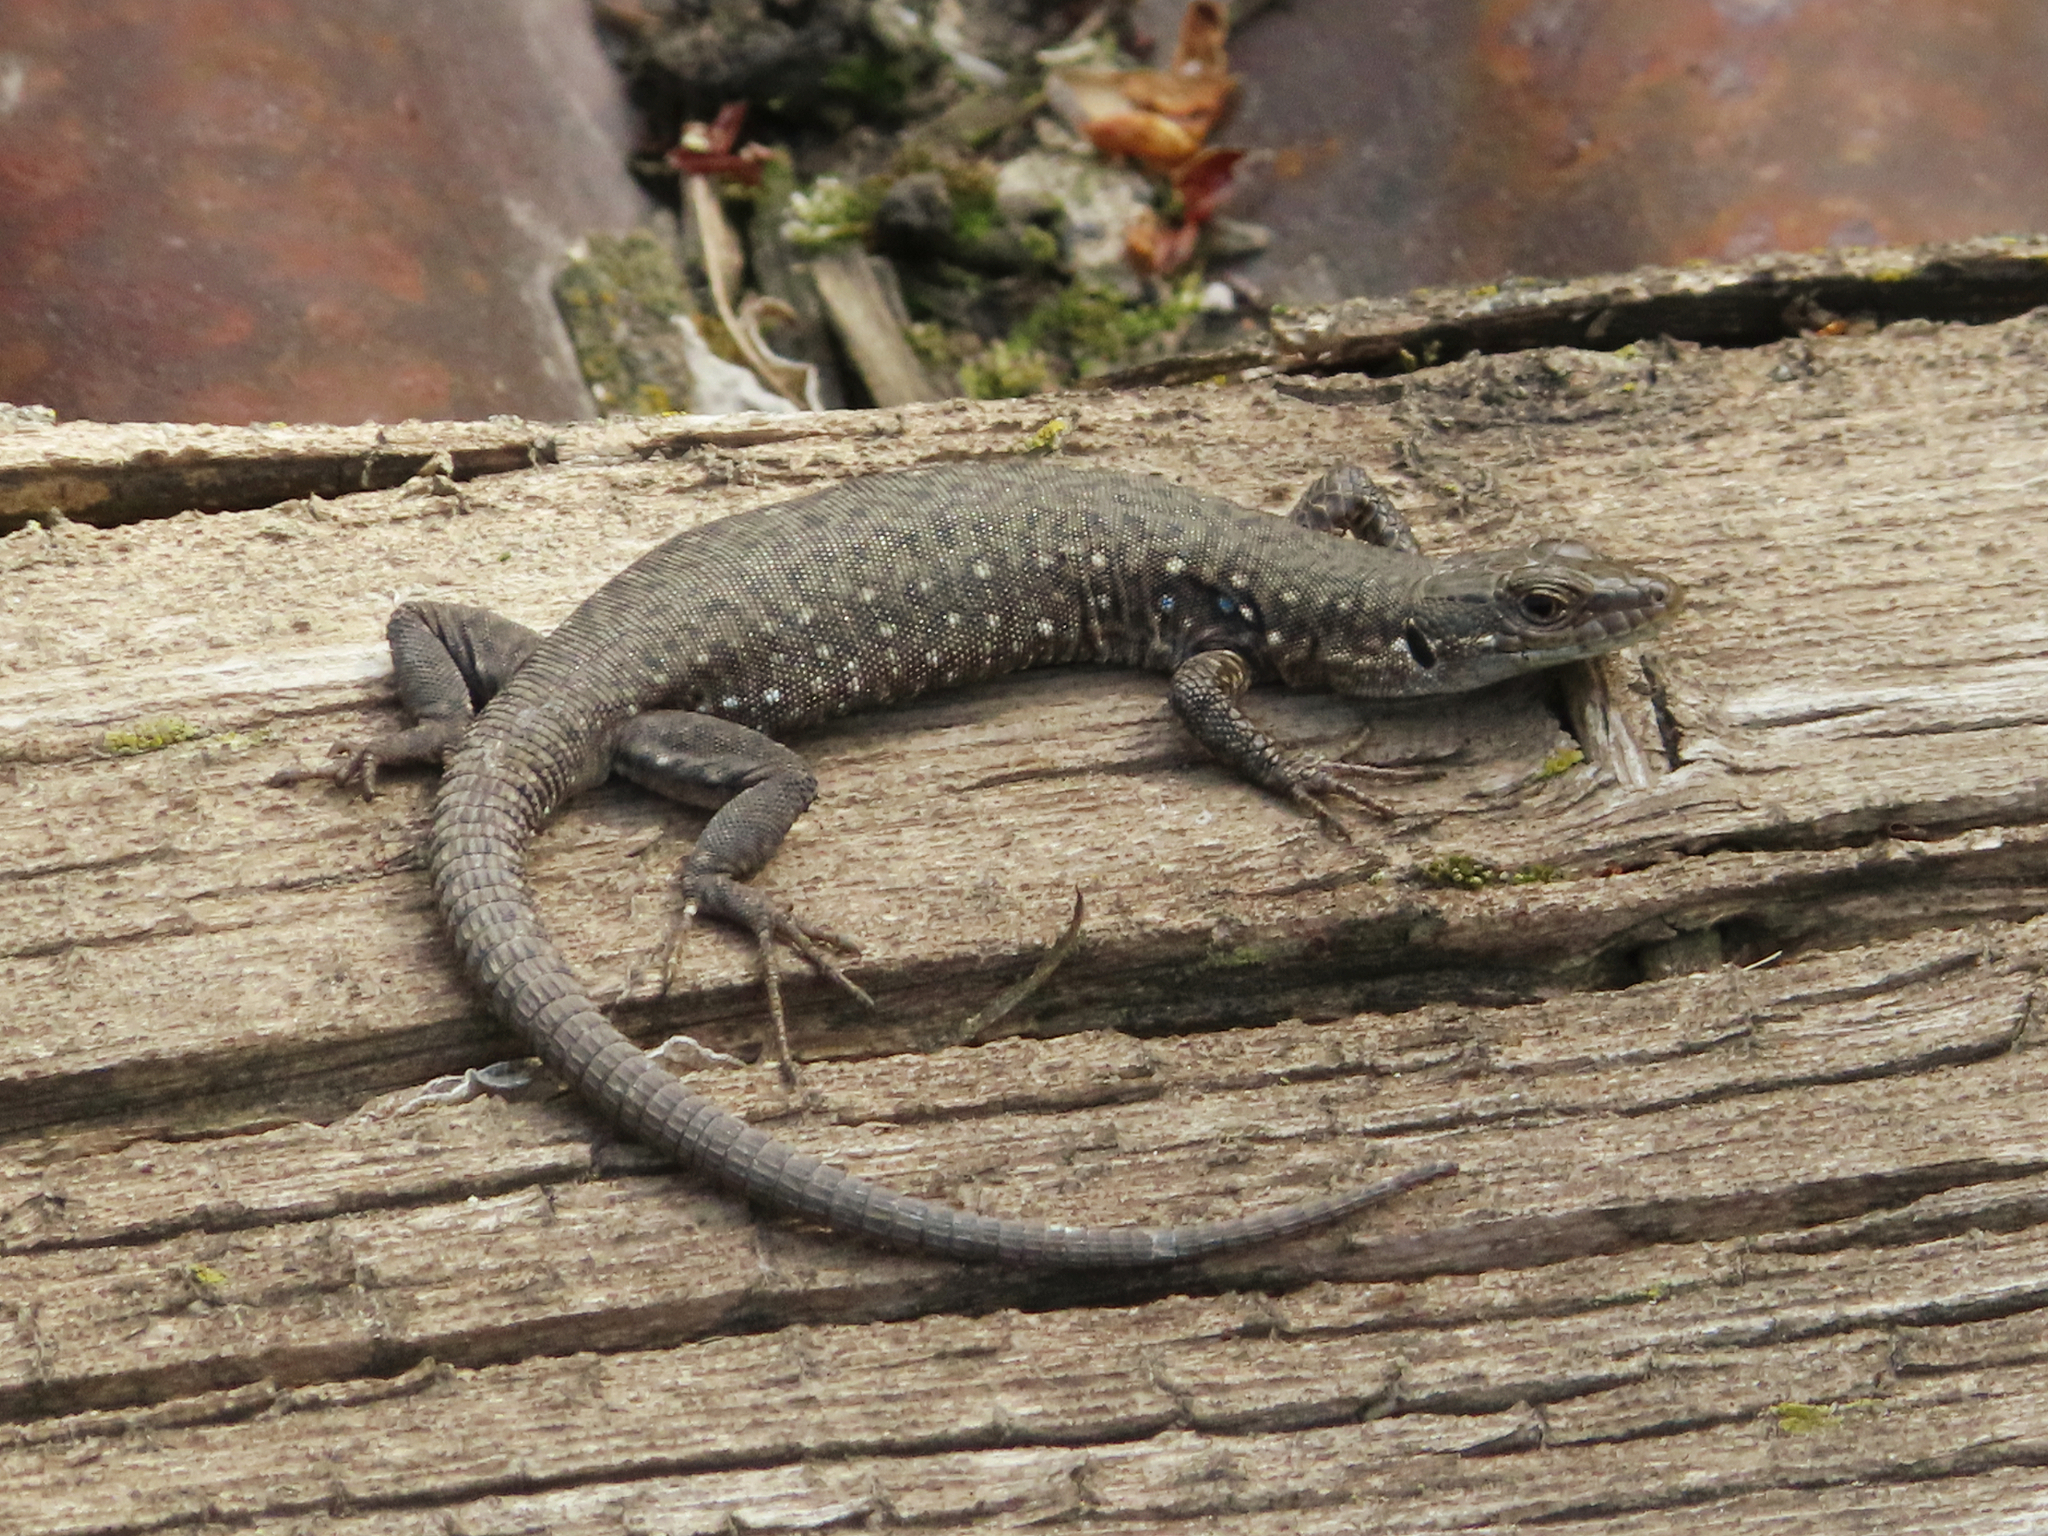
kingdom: Animalia
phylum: Chordata
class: Squamata
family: Lacertidae
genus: Darevskia
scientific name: Darevskia
